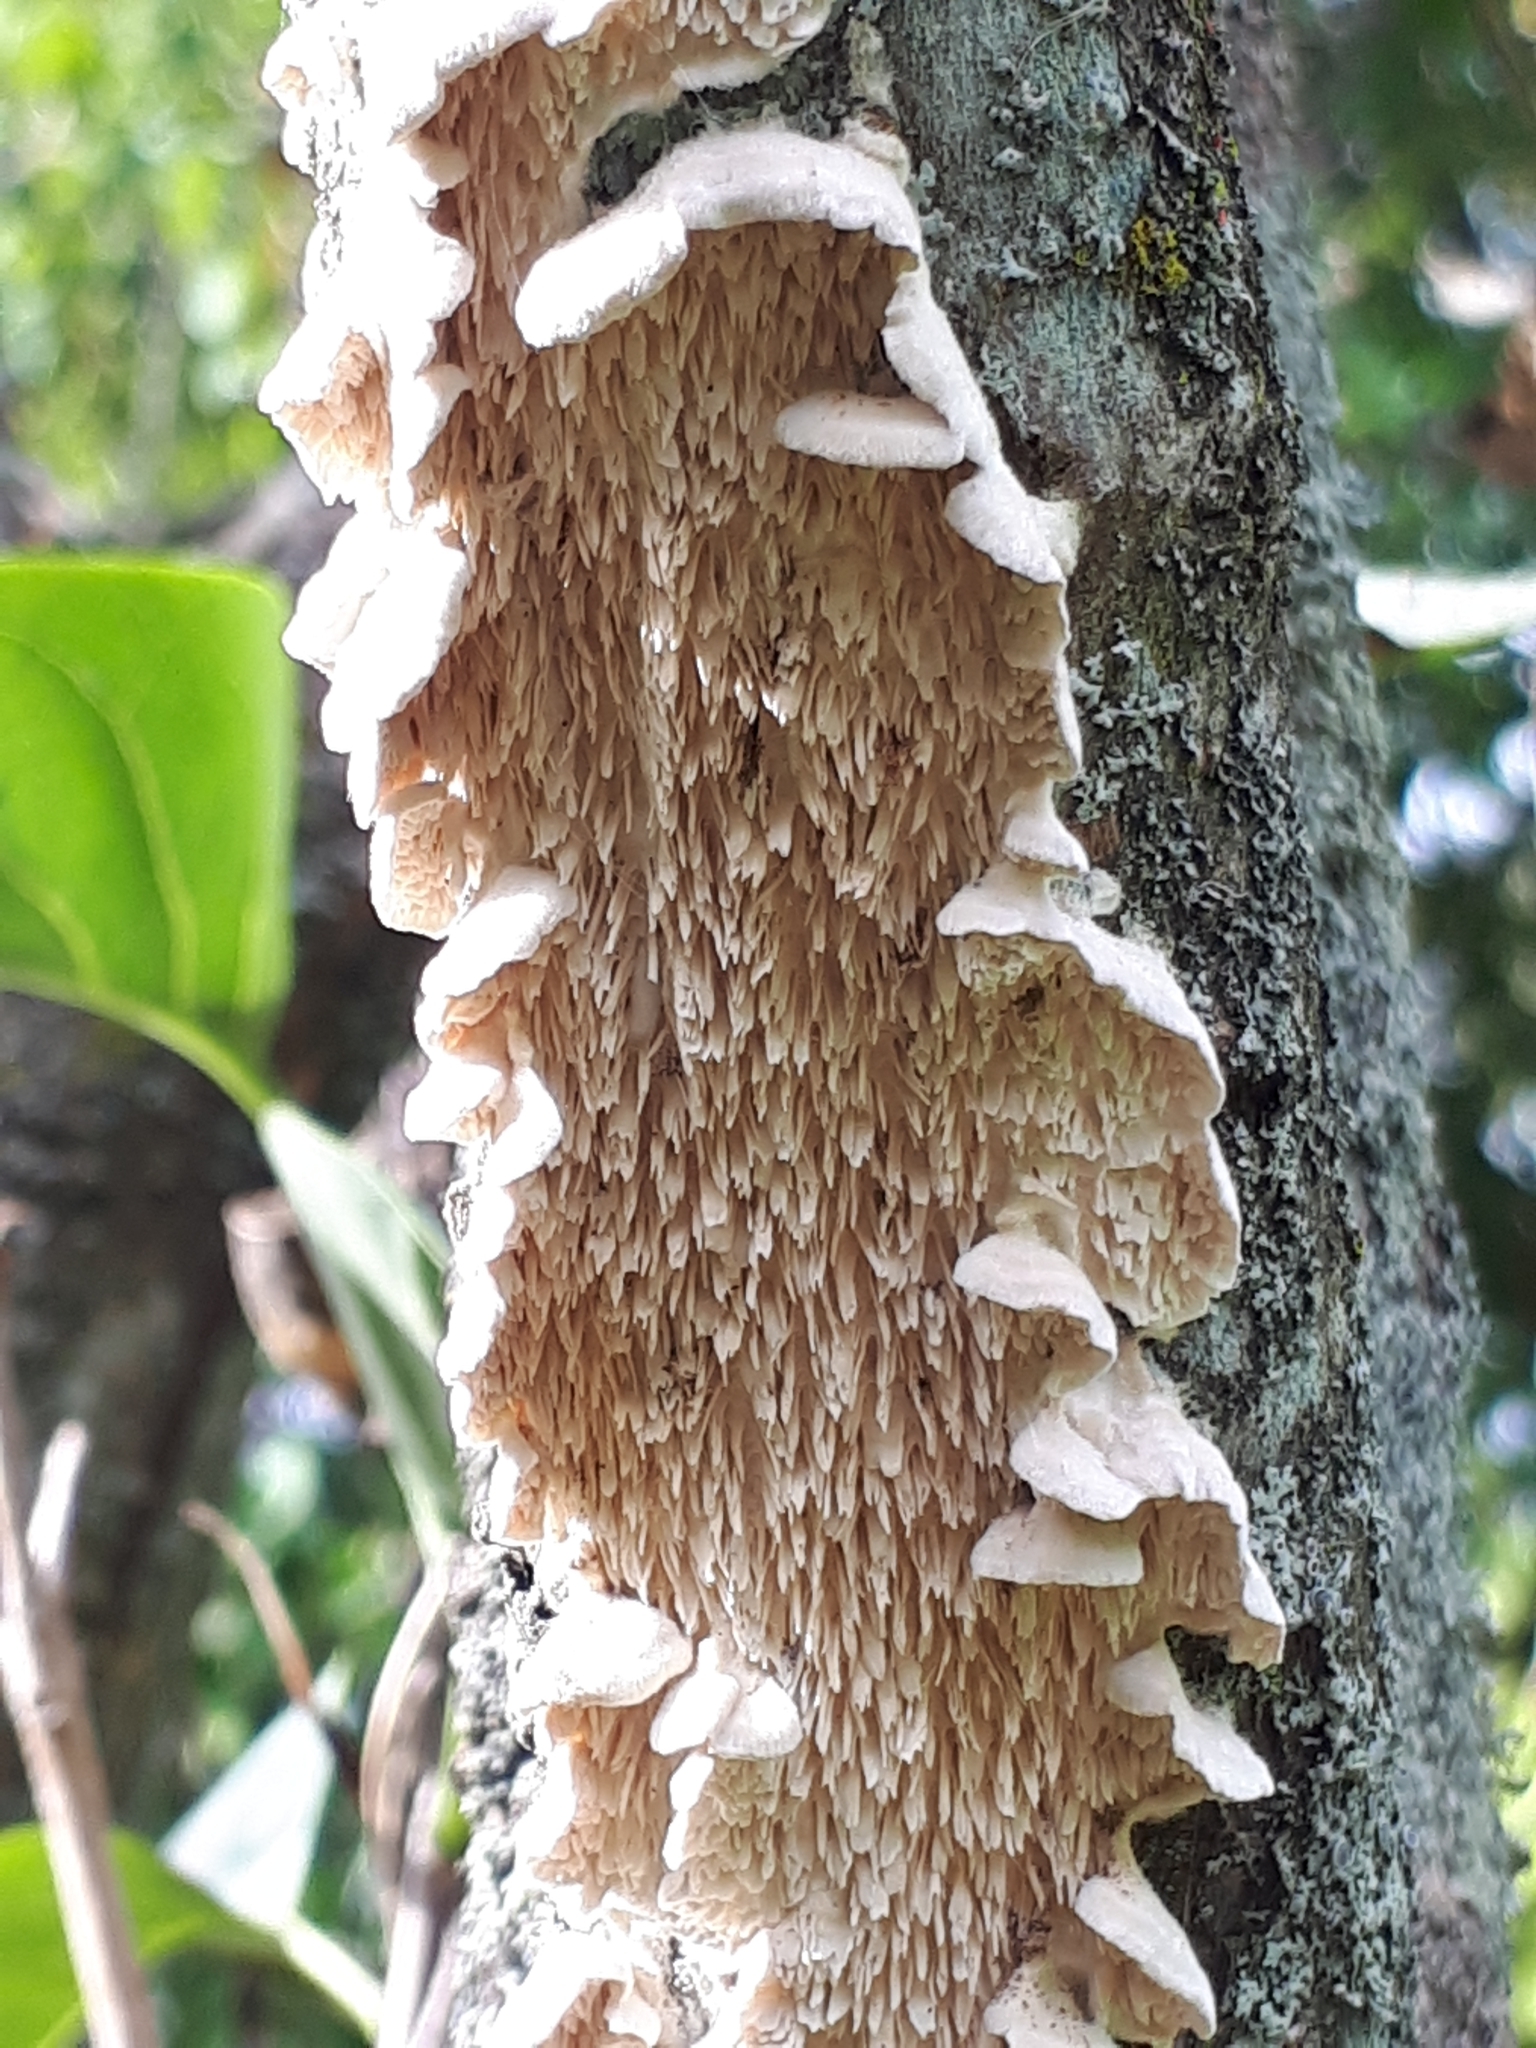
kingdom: Fungi
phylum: Basidiomycota
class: Agaricomycetes
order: Polyporales
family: Irpicaceae
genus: Irpex
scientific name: Irpex lacteus
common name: Milk-white toothed polypore
